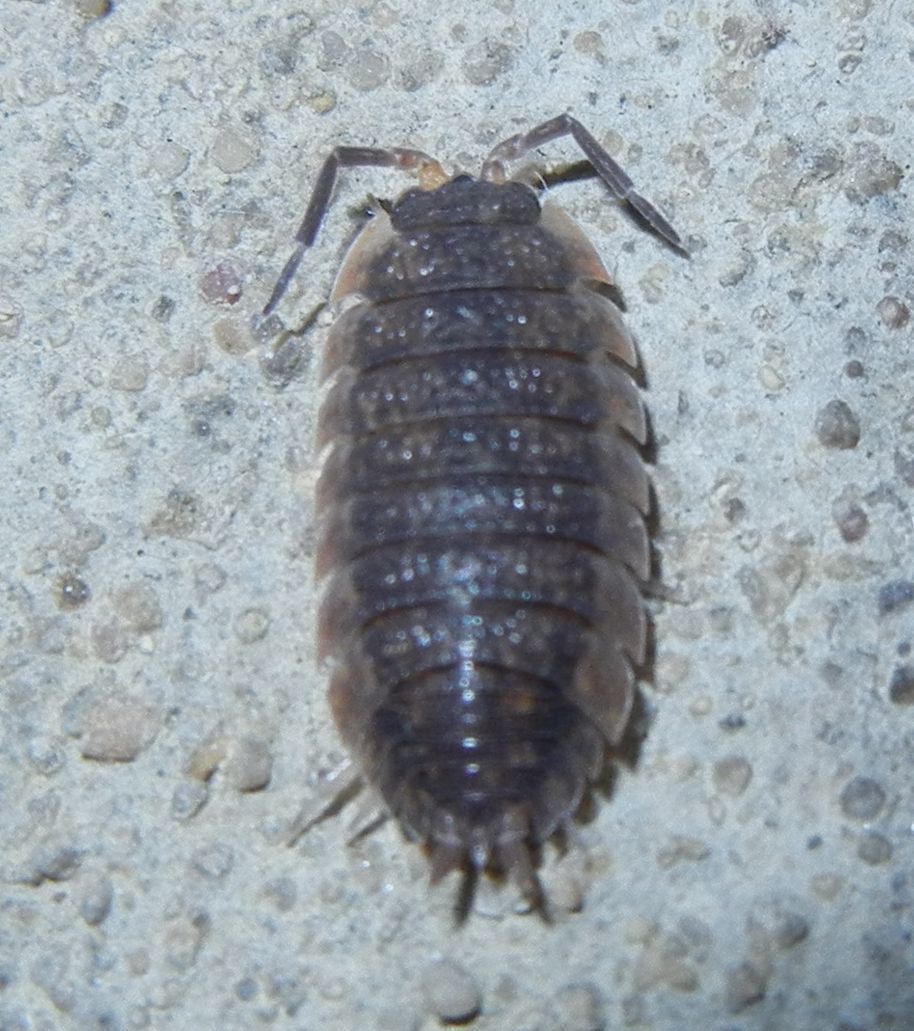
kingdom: Animalia
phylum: Arthropoda
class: Malacostraca
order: Isopoda
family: Porcellionidae
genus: Porcellio
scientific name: Porcellio scaber
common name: Common rough woodlouse
